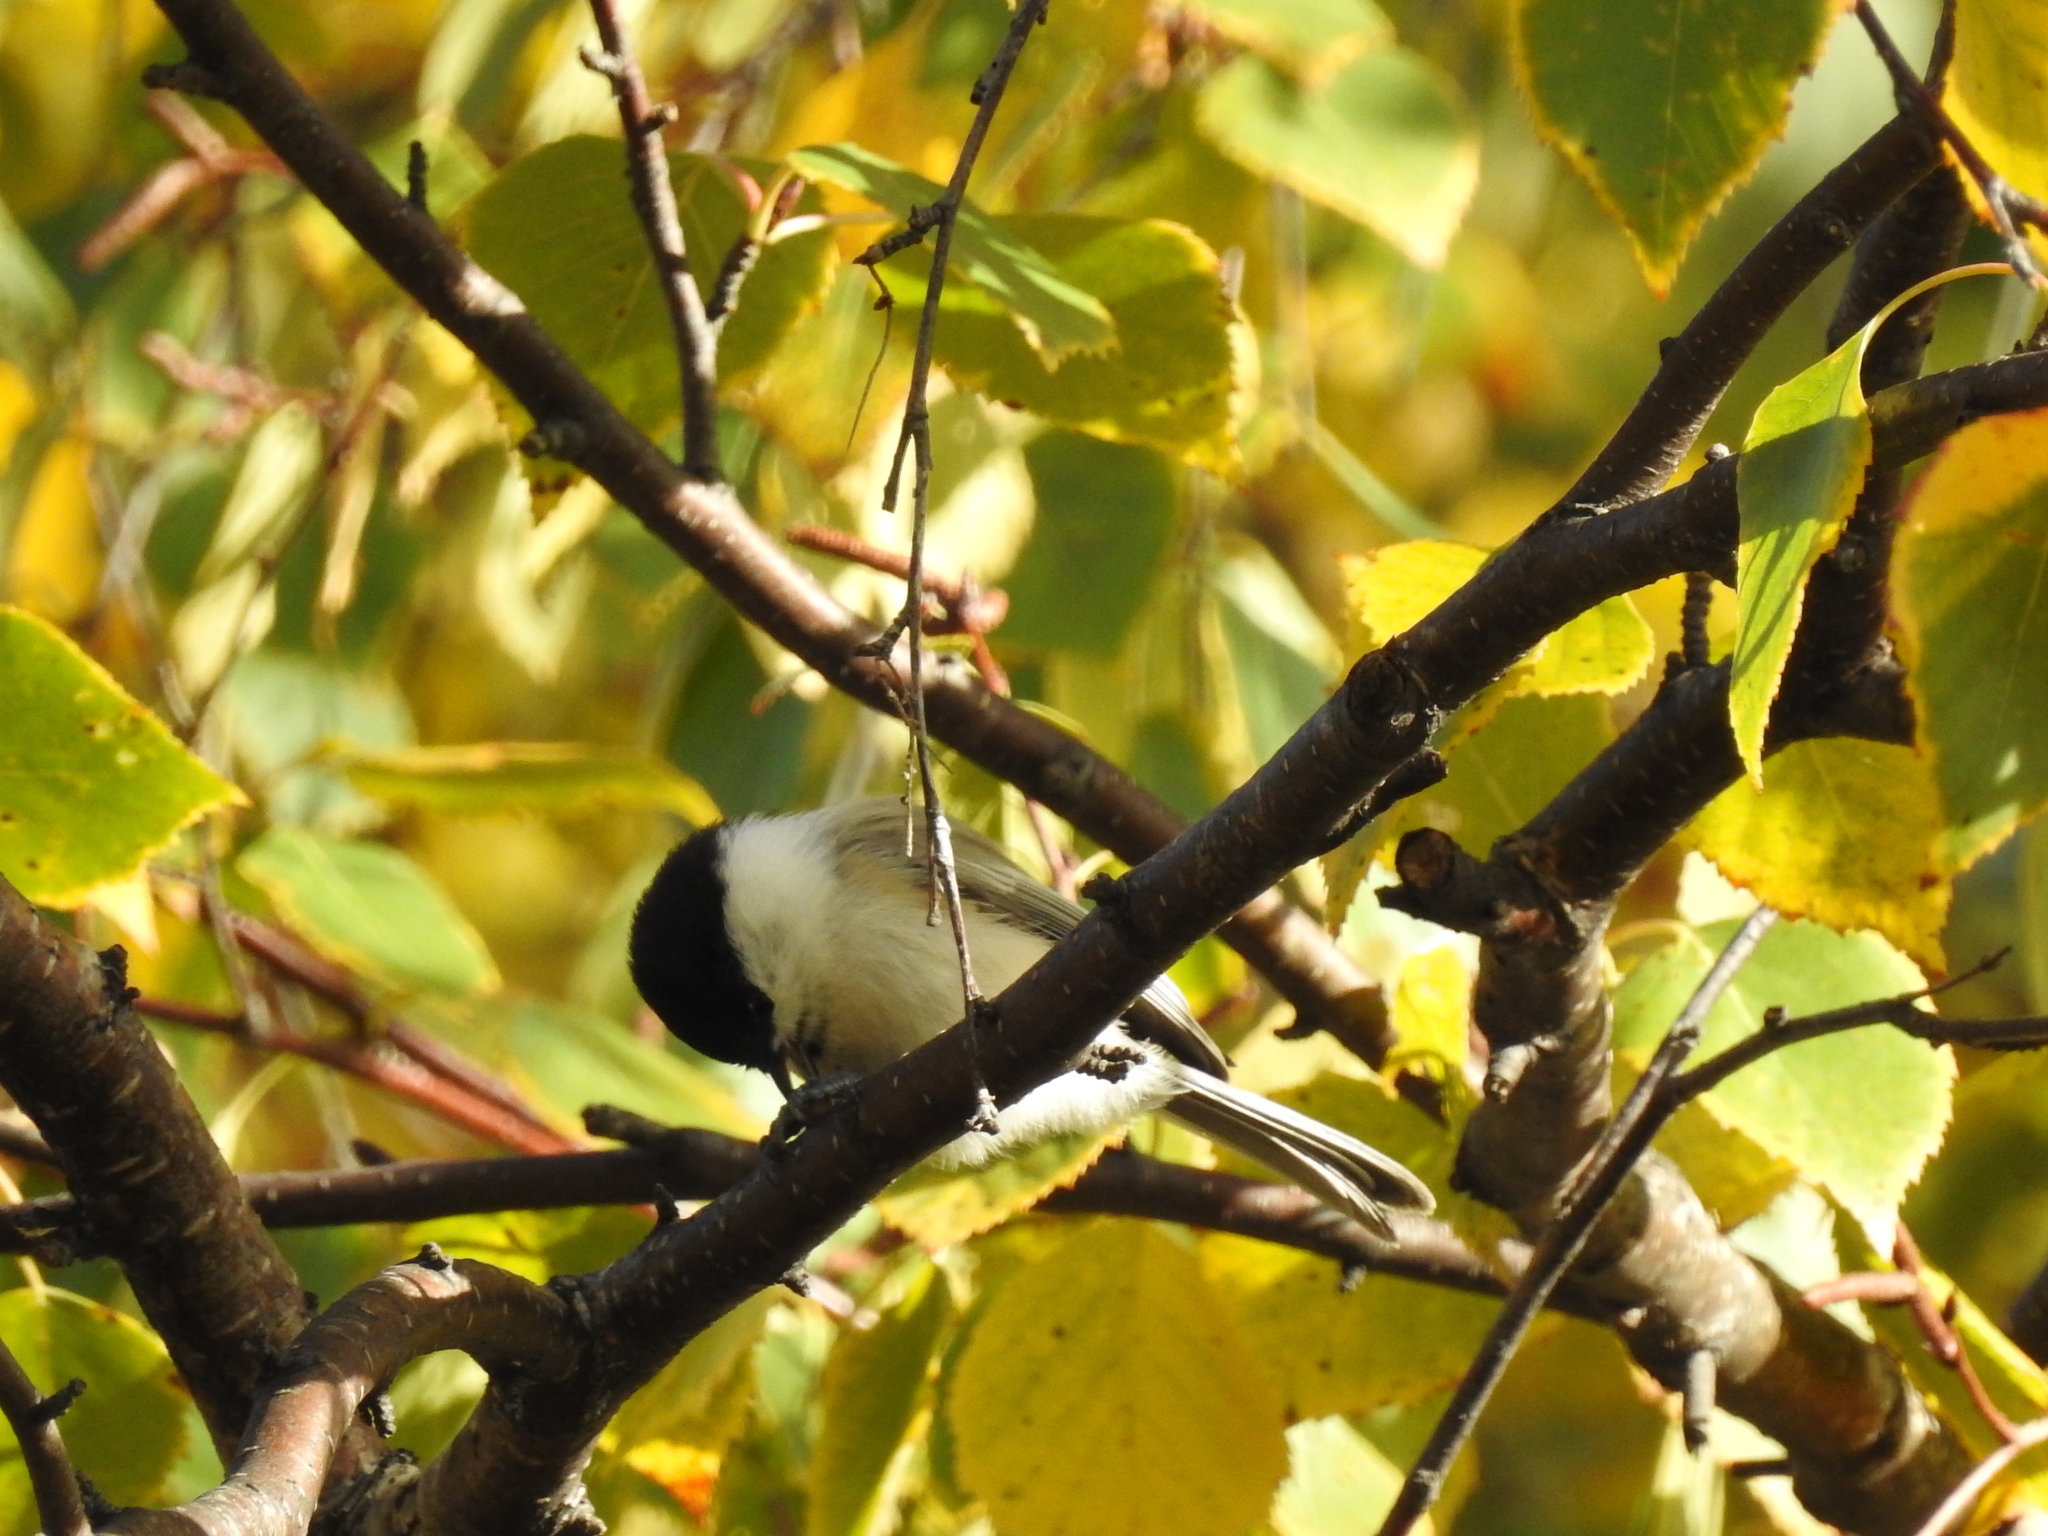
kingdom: Animalia
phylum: Chordata
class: Aves
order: Passeriformes
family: Paridae
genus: Poecile
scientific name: Poecile montanus
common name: Willow tit
